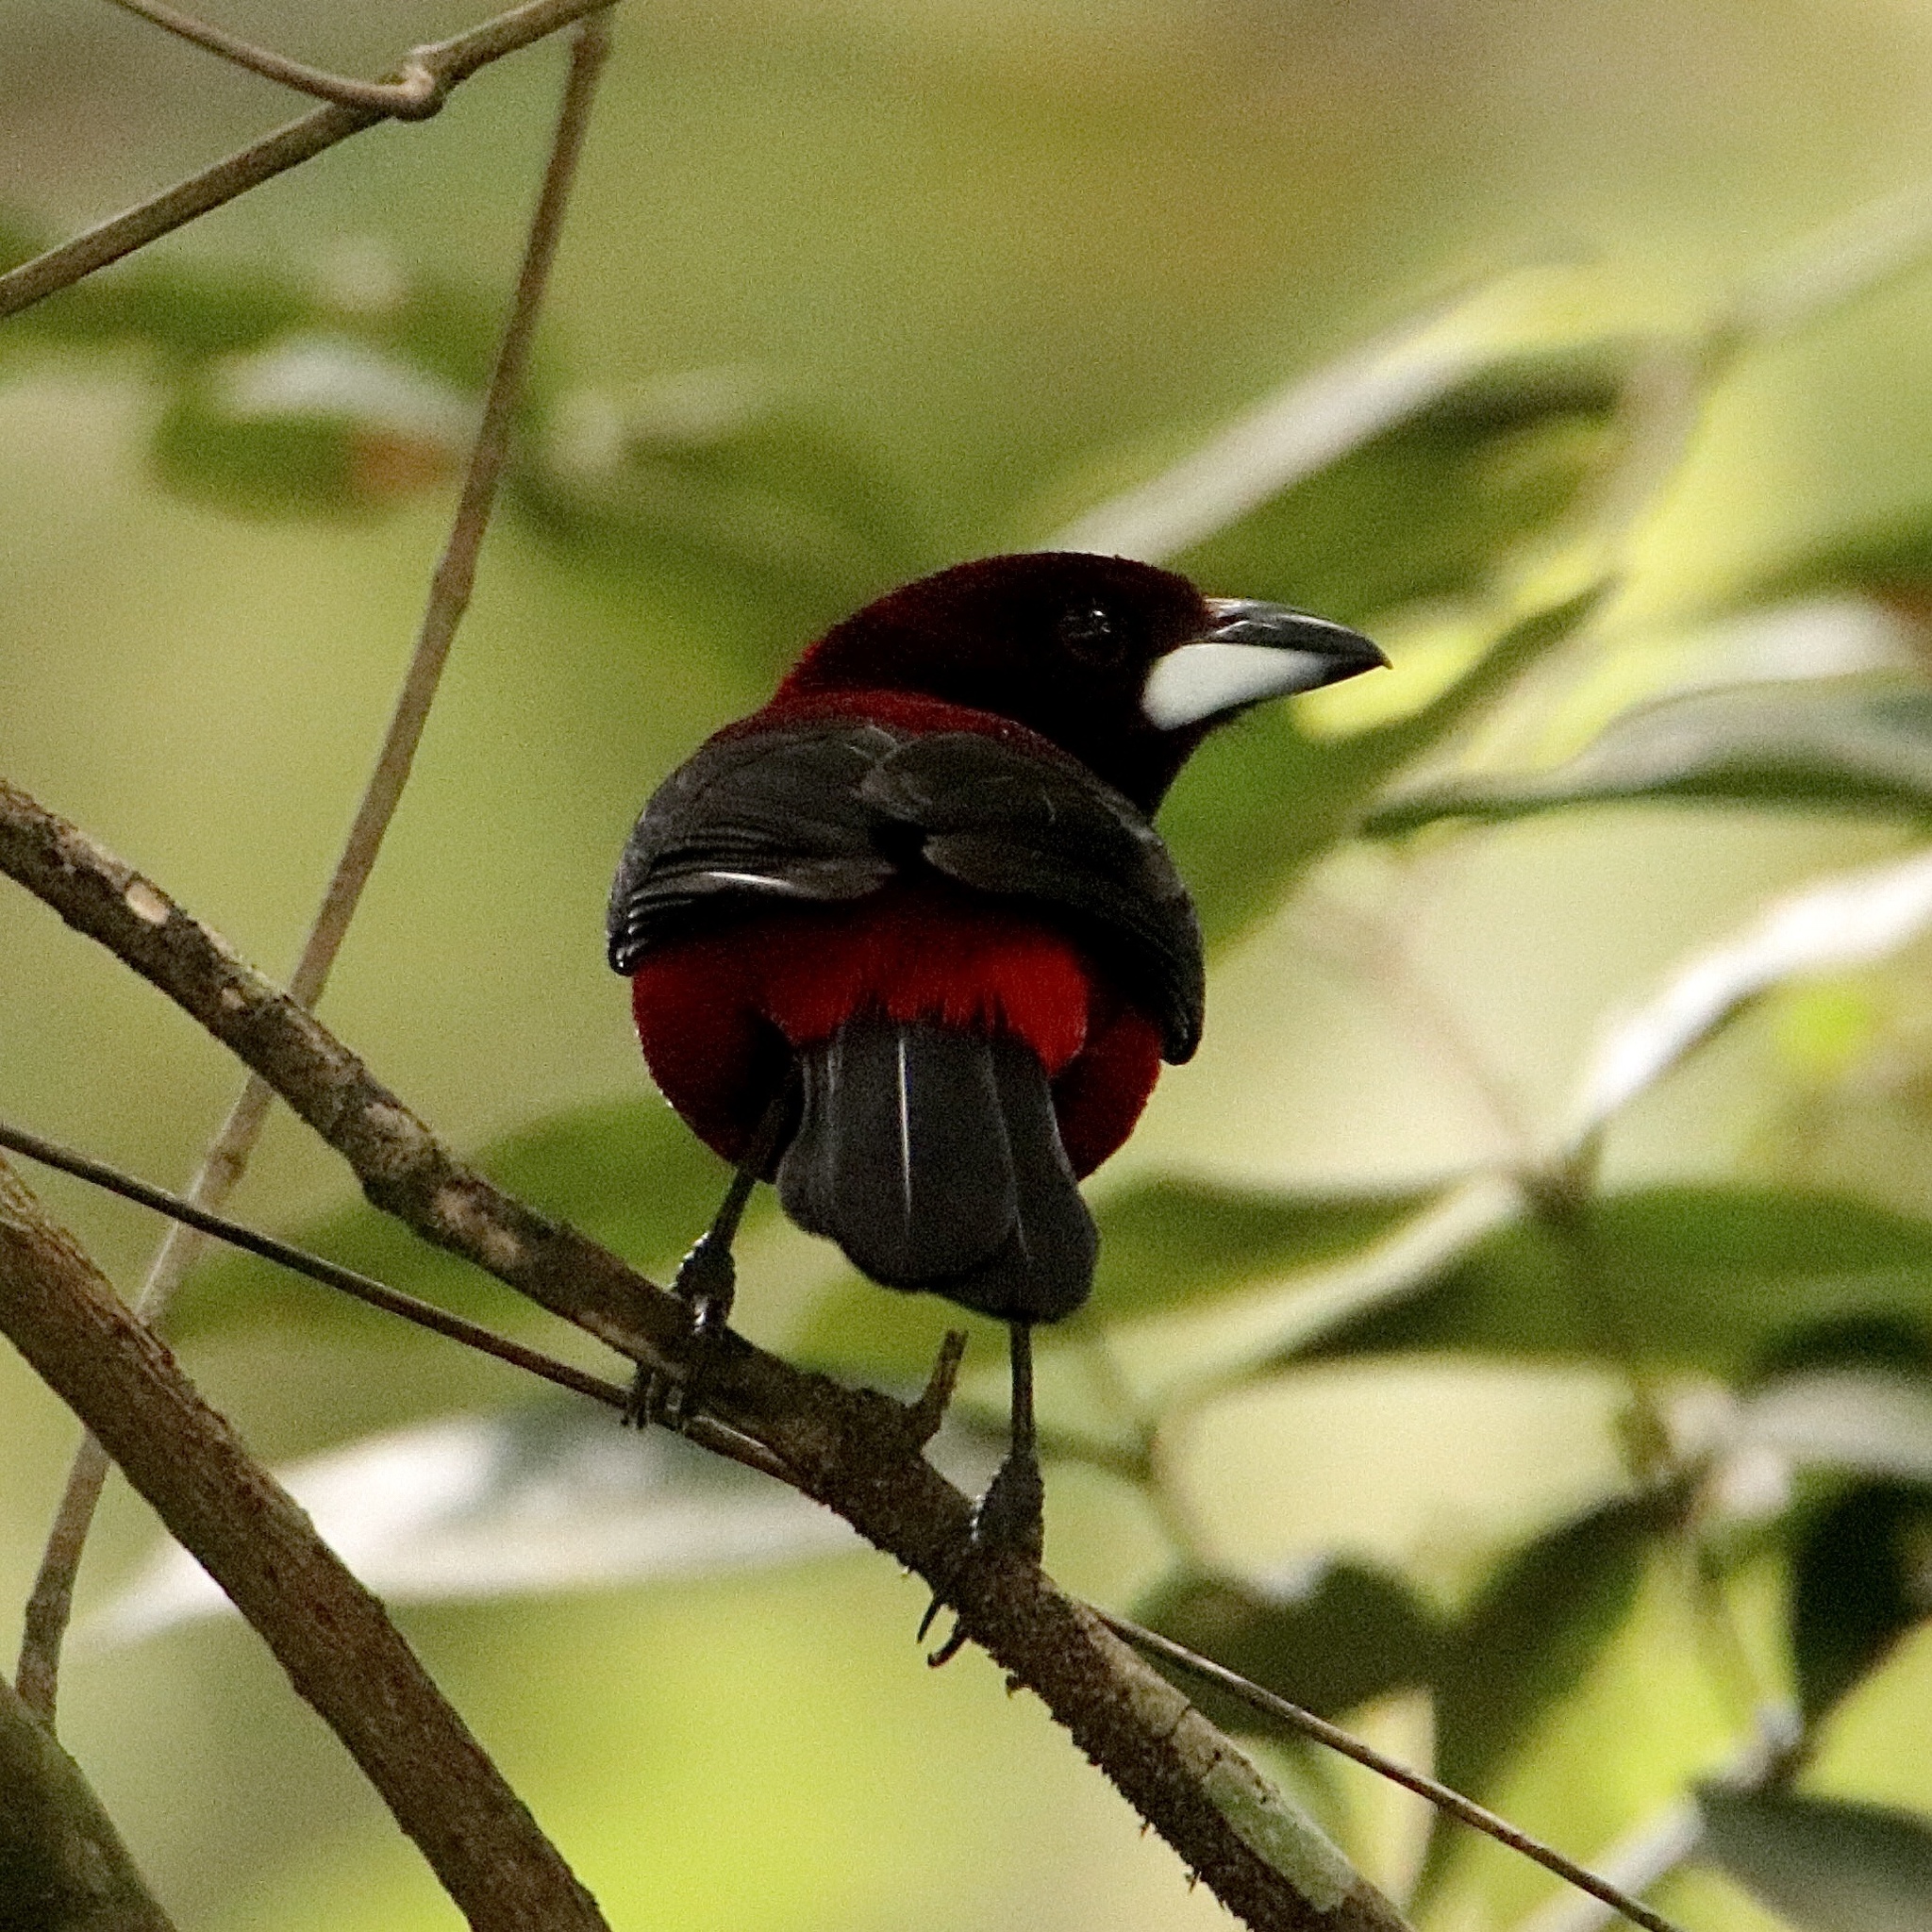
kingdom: Animalia
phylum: Chordata
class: Aves
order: Passeriformes
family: Thraupidae
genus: Ramphocelus
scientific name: Ramphocelus dimidiatus
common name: Crimson-backed tanager
